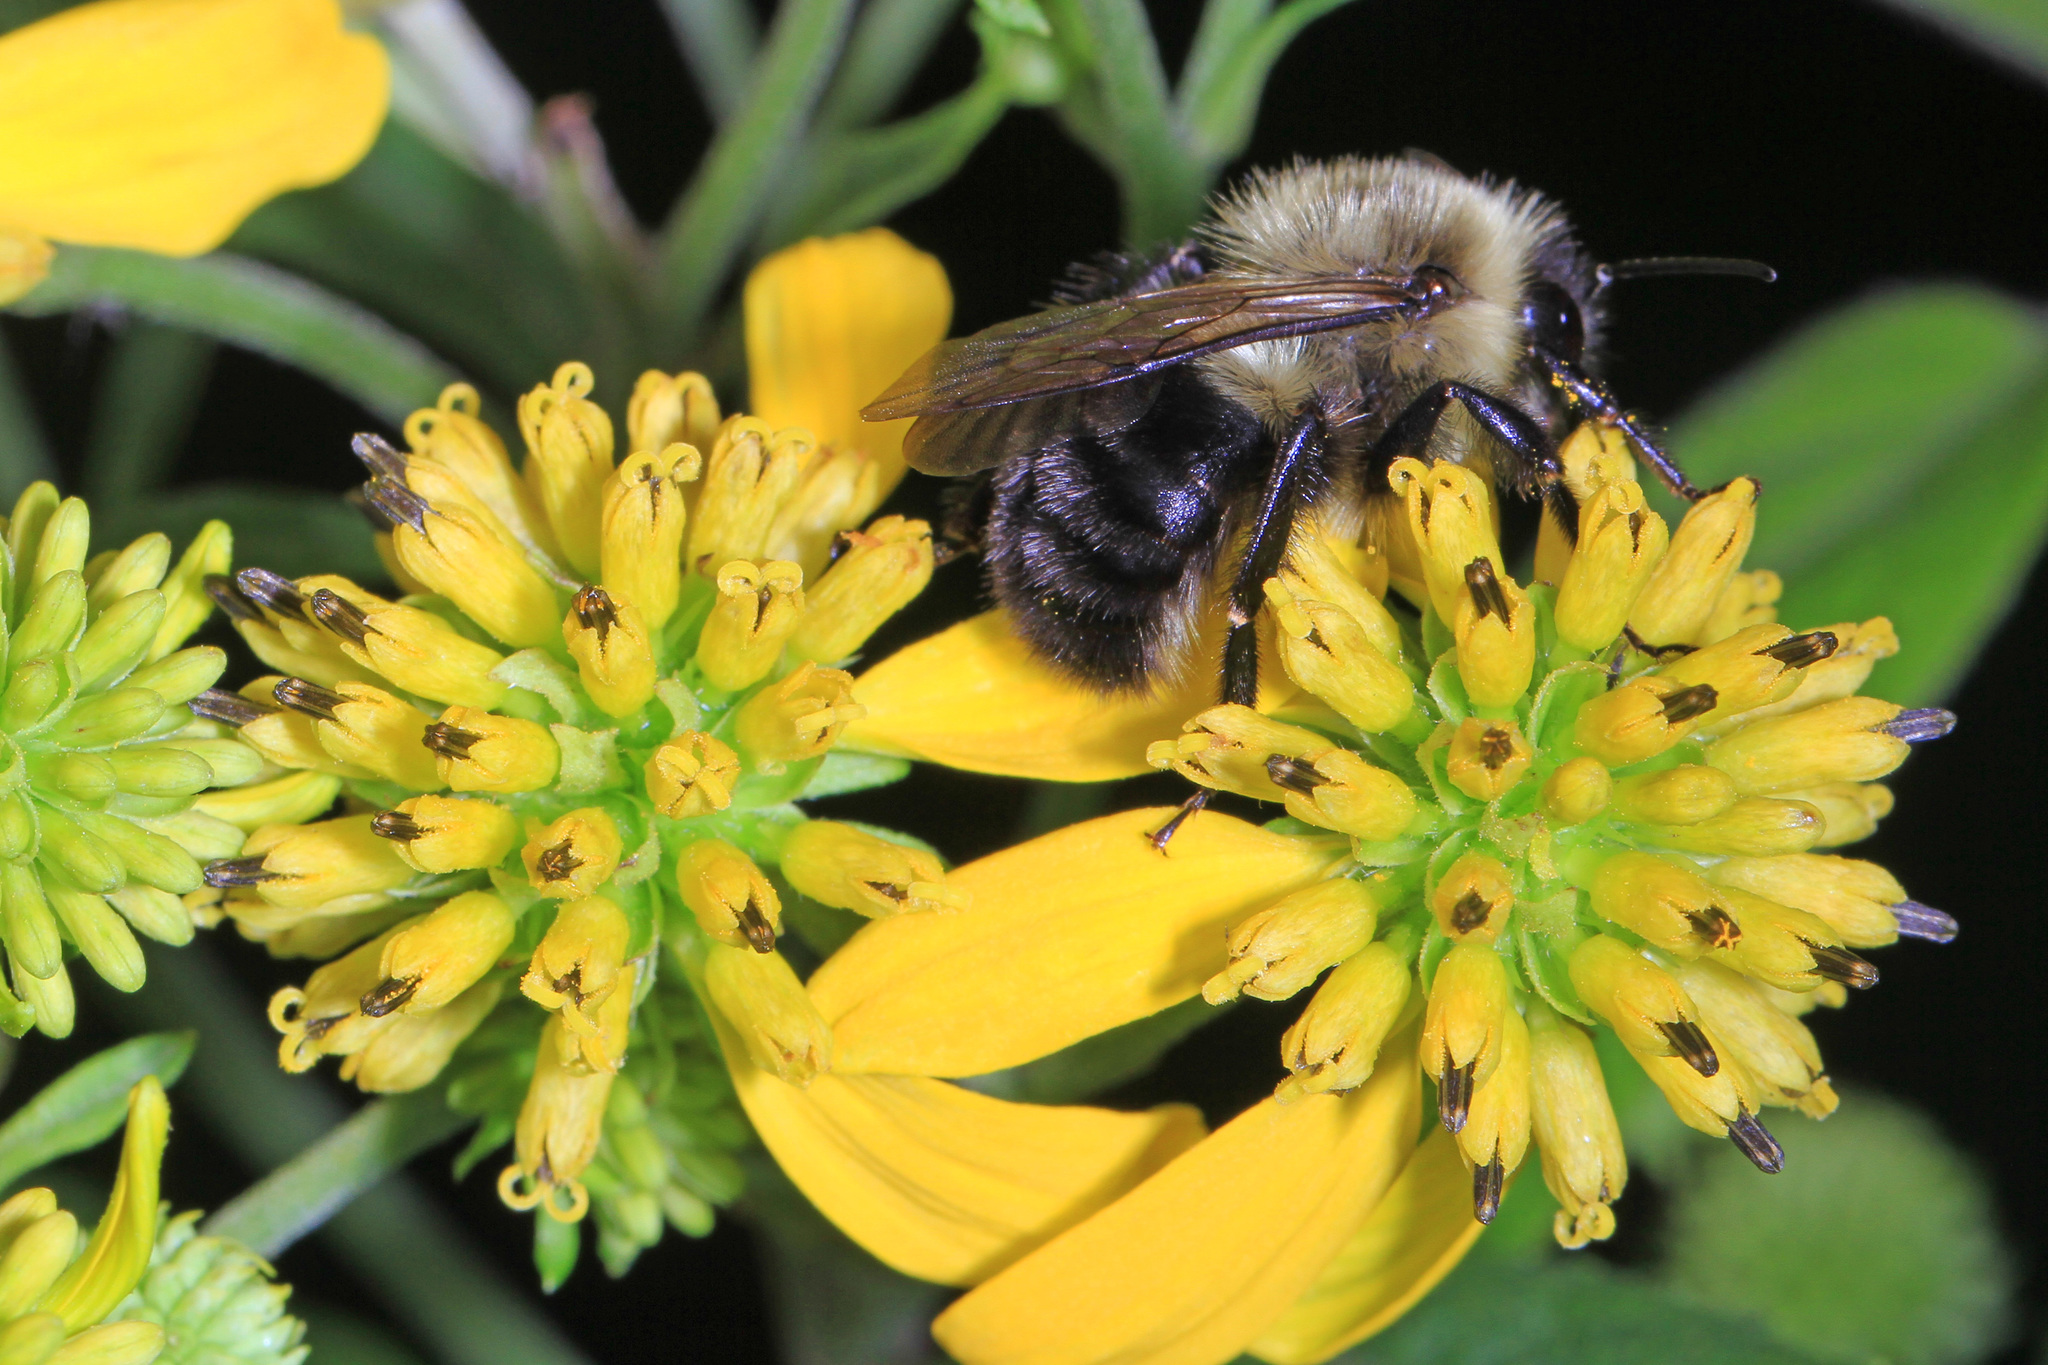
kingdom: Plantae
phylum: Tracheophyta
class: Magnoliopsida
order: Asterales
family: Asteraceae
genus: Verbesina
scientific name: Verbesina alternifolia
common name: Wingstem
